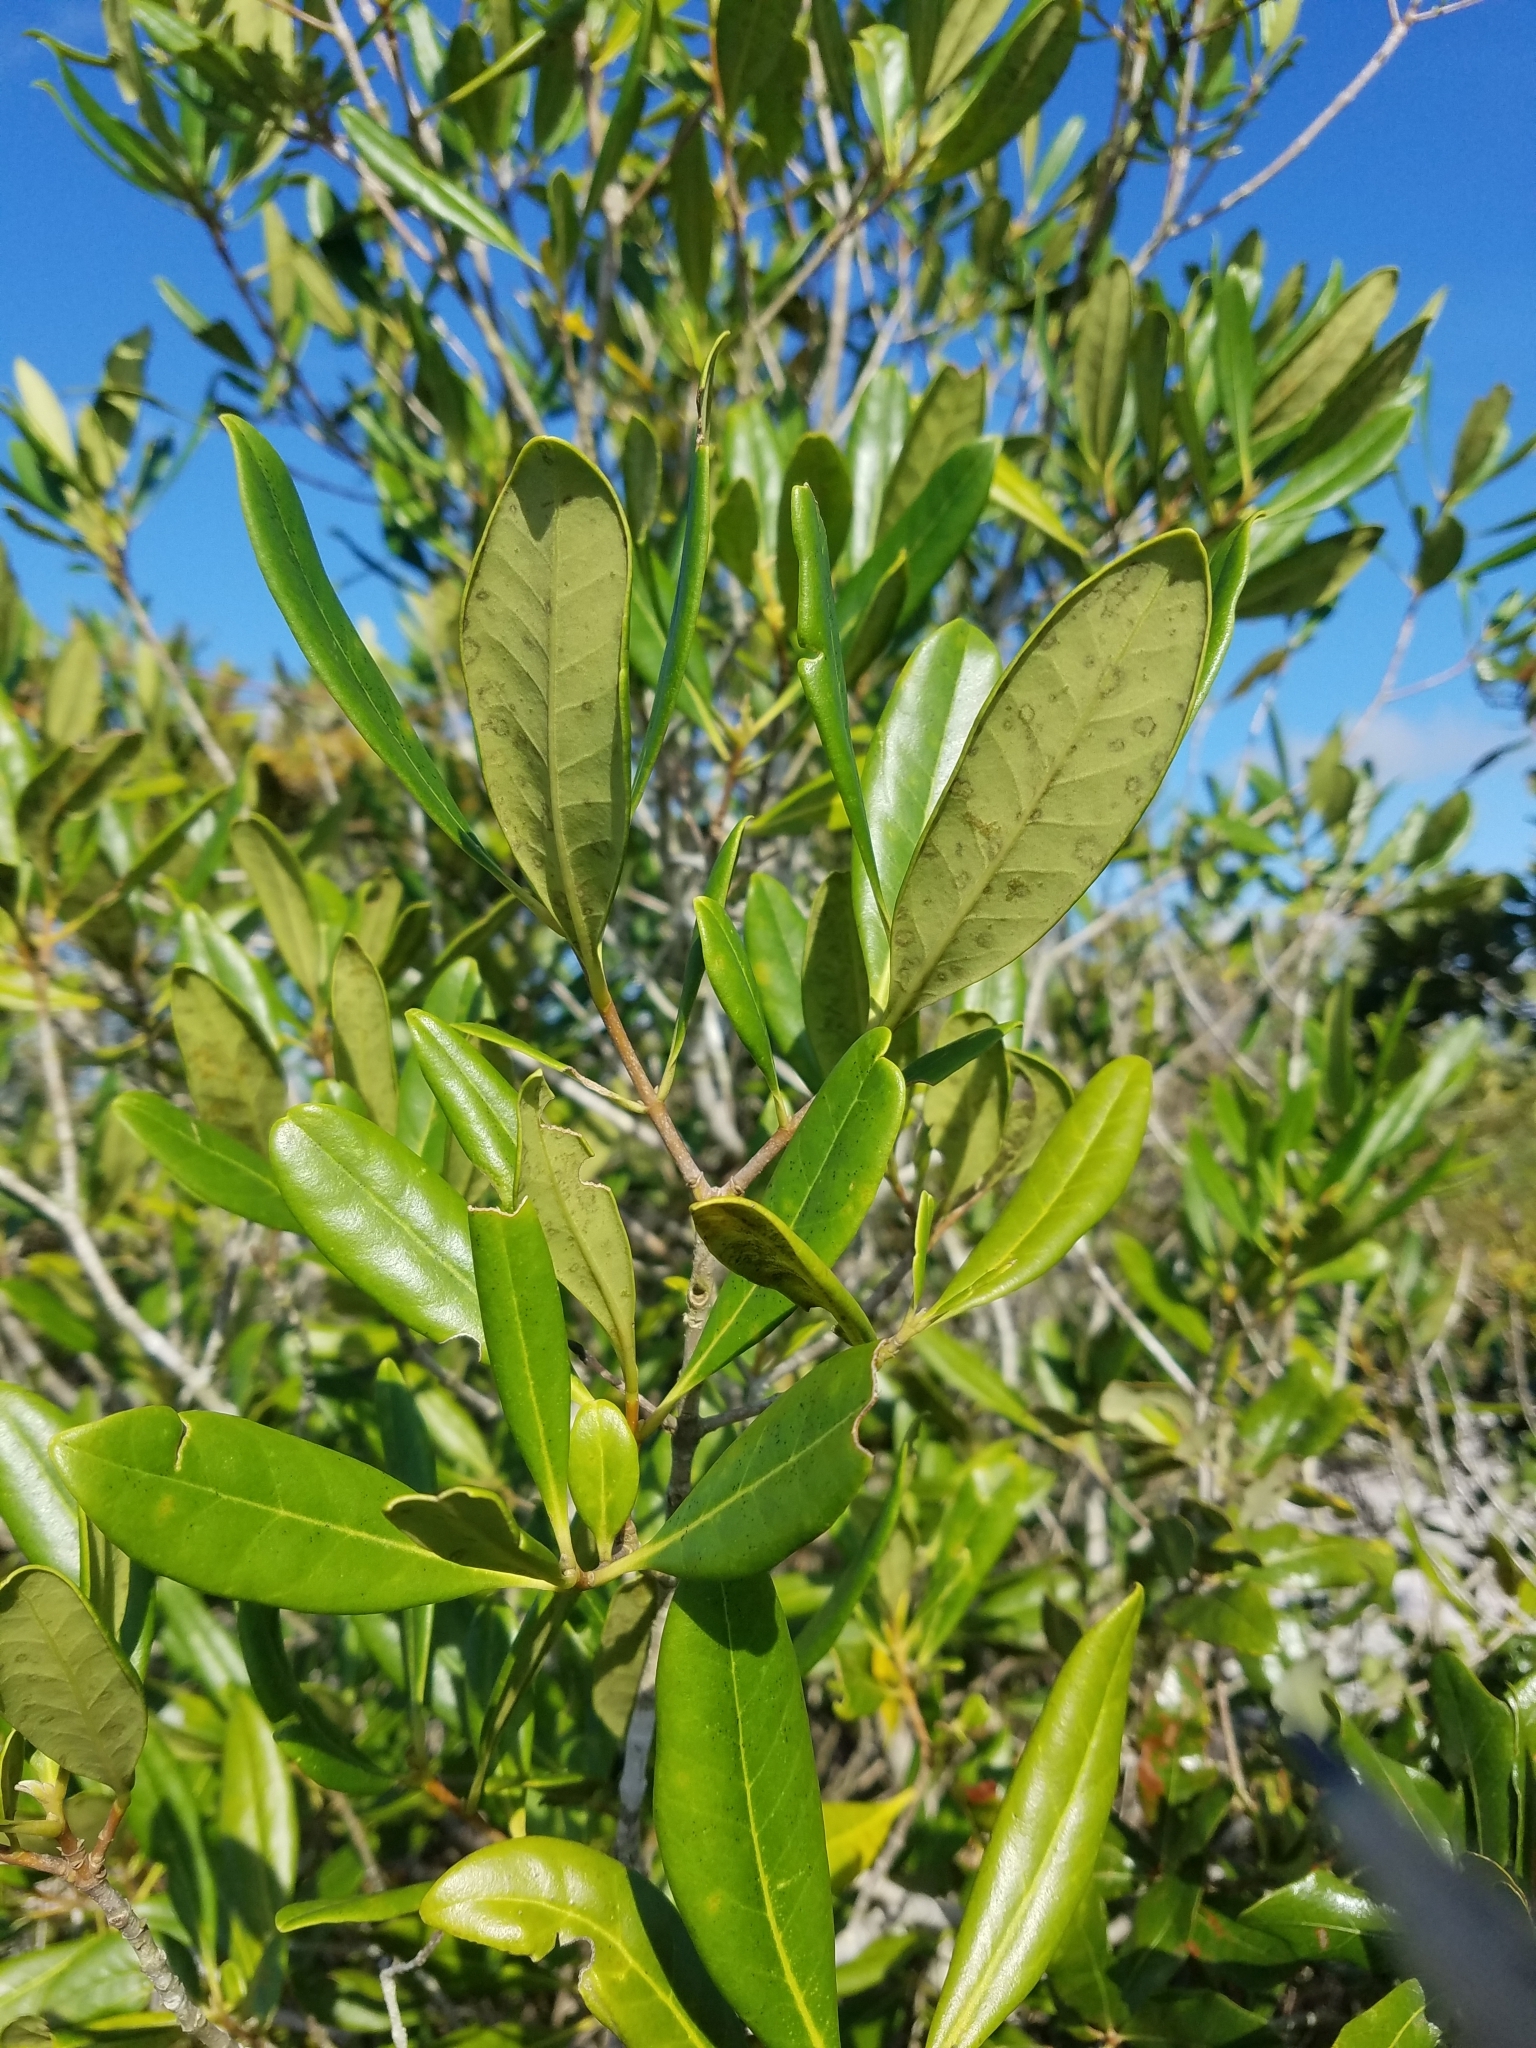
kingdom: Plantae
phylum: Tracheophyta
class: Magnoliopsida
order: Lamiales
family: Oleaceae
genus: Cartrema
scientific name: Cartrema floridana
